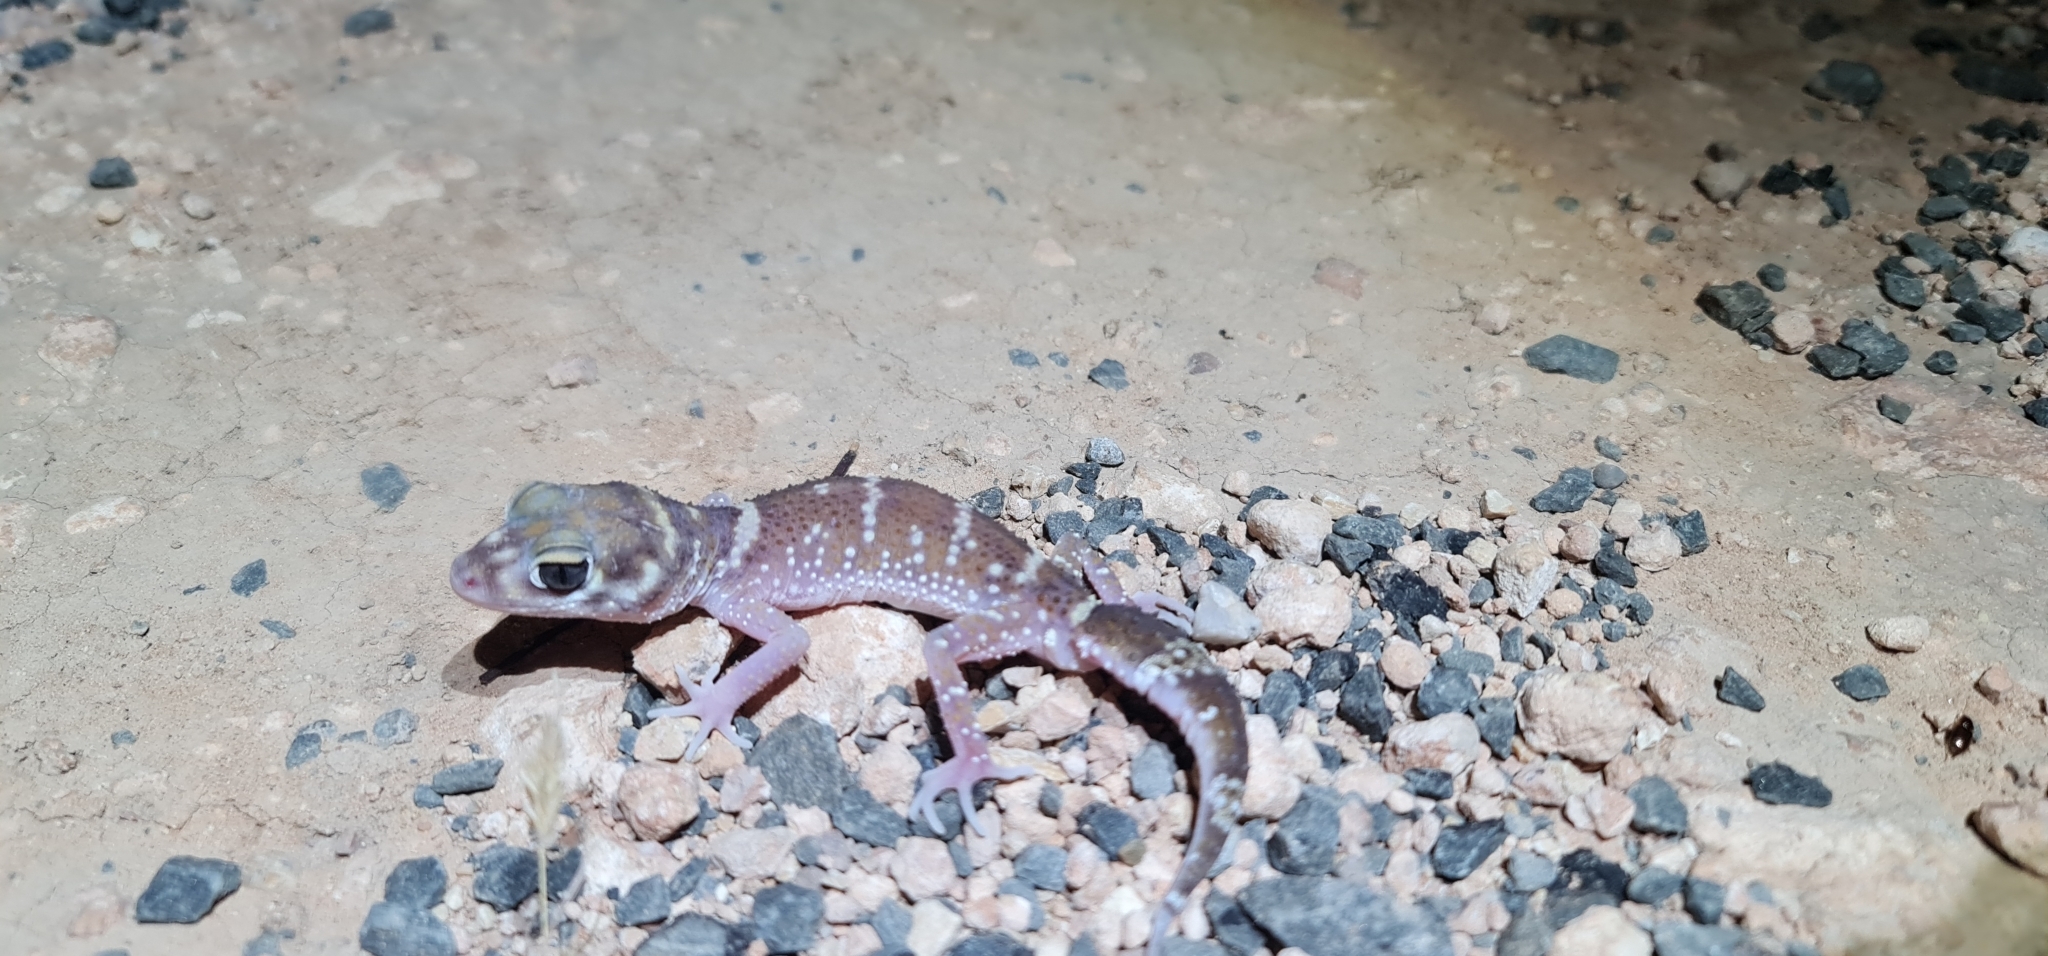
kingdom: Animalia
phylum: Chordata
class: Squamata
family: Carphodactylidae
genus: Underwoodisaurus
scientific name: Underwoodisaurus milii
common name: Barking gecko
